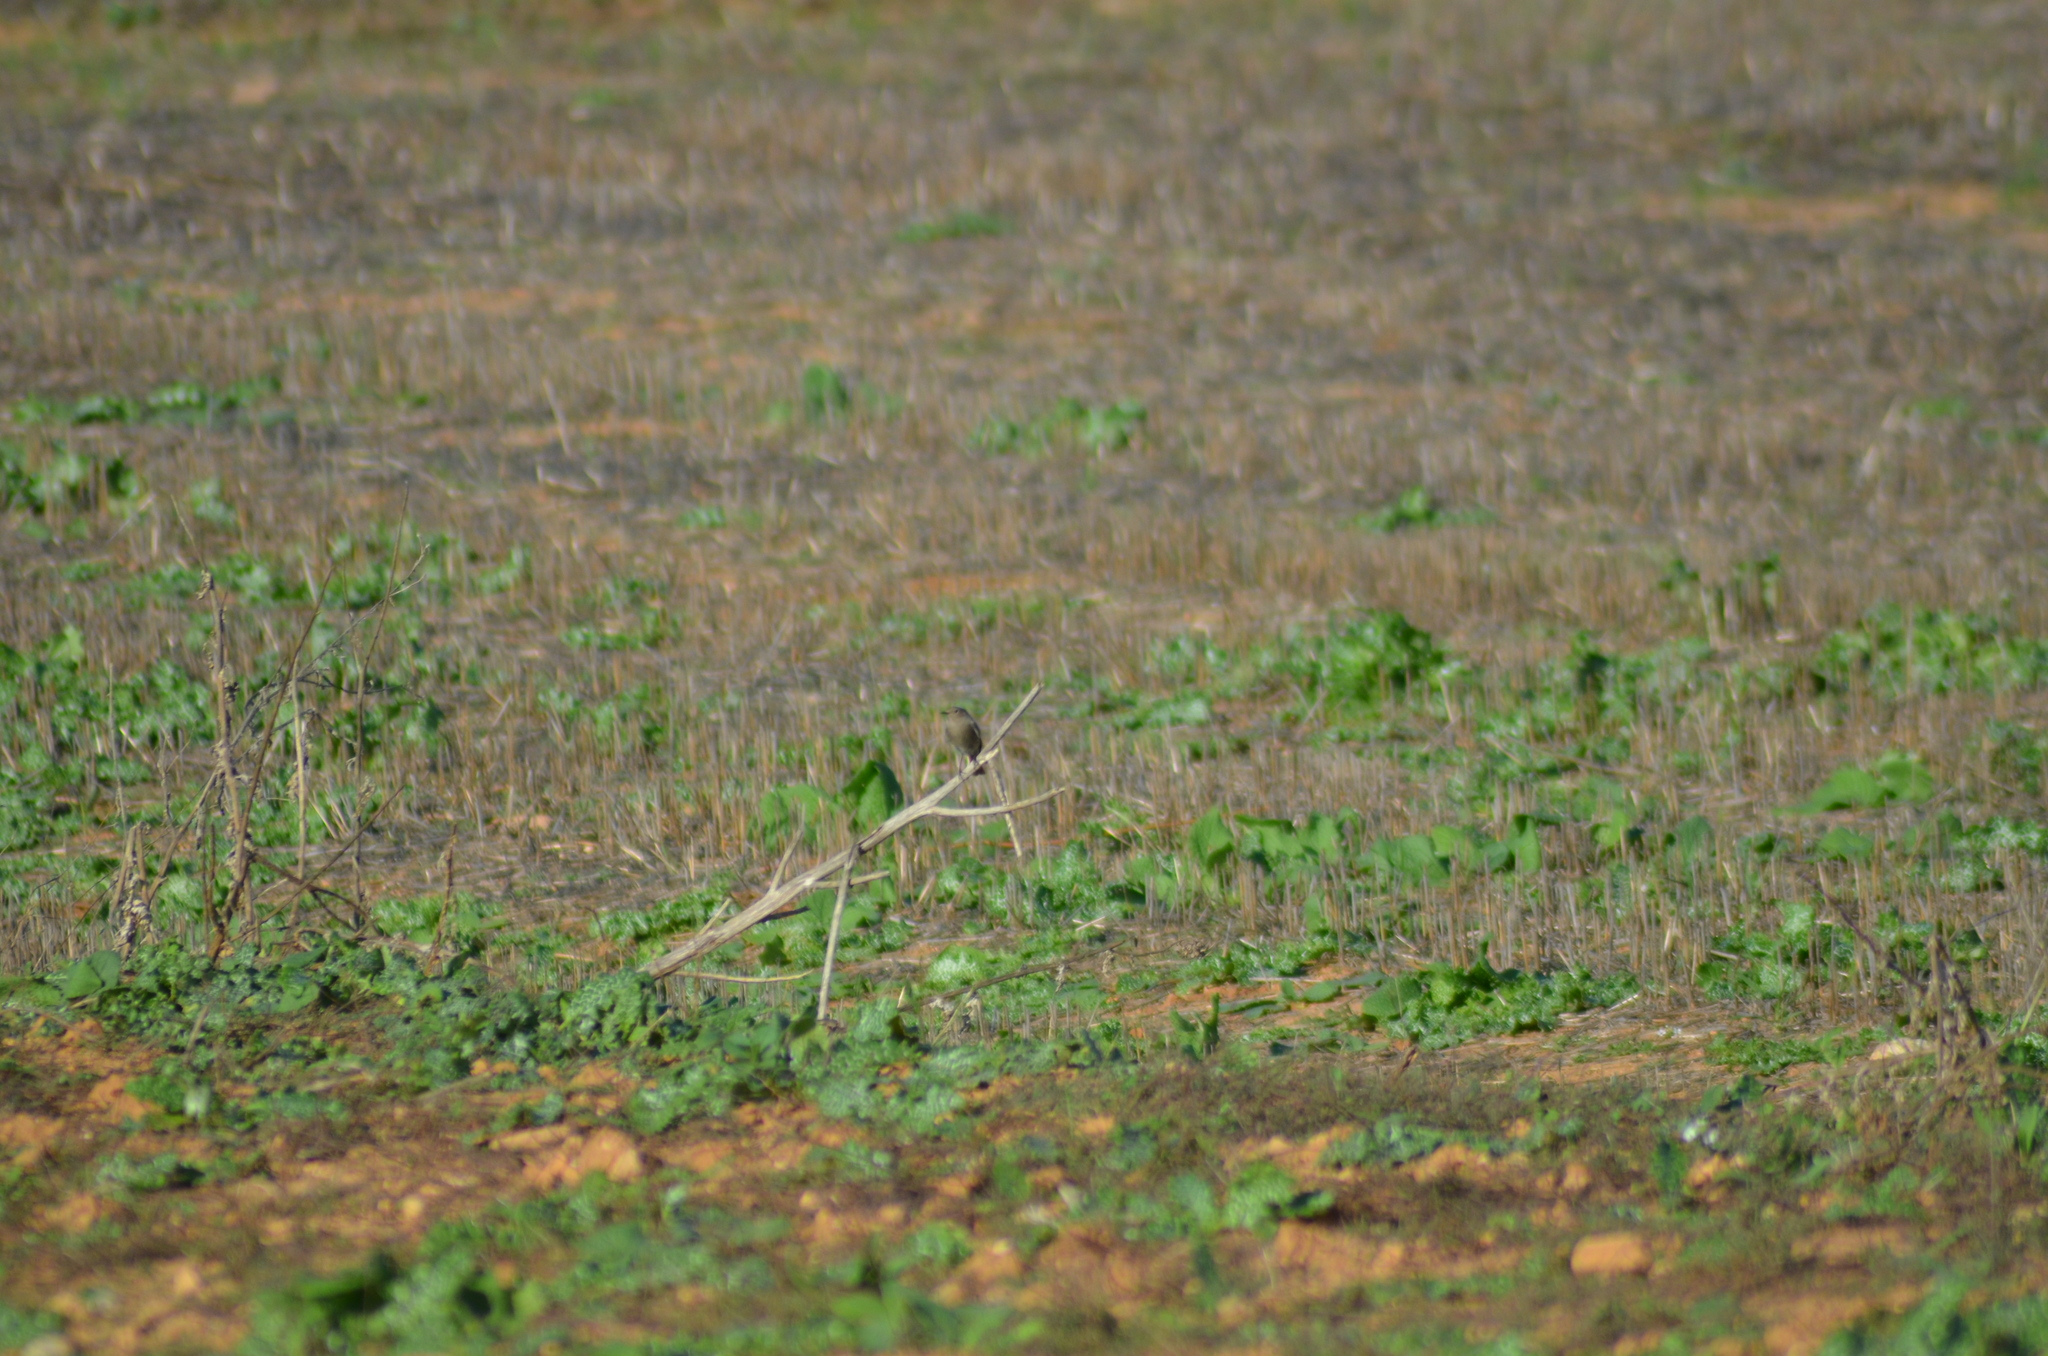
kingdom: Animalia
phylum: Chordata
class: Aves
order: Passeriformes
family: Muscicapidae
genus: Phoenicurus
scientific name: Phoenicurus ochruros
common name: Black redstart
